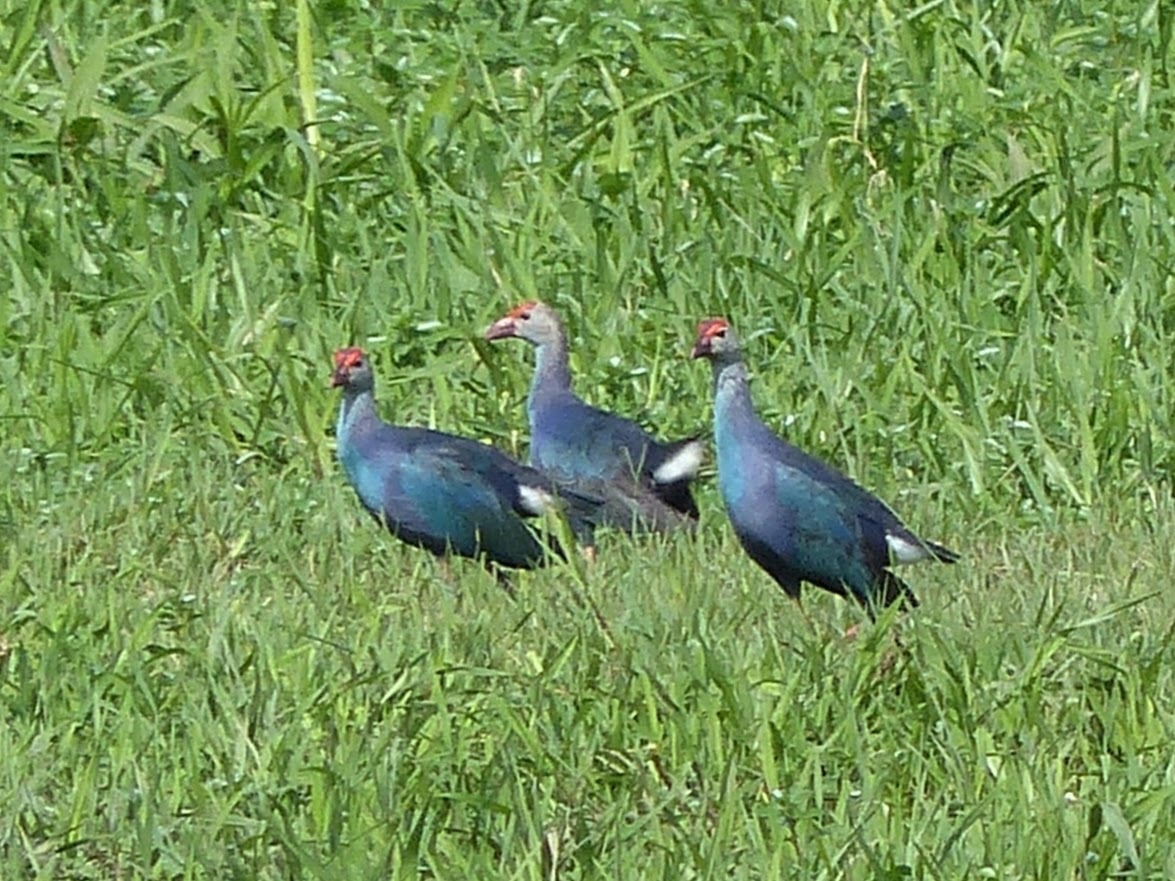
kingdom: Animalia
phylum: Chordata
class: Aves
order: Gruiformes
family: Rallidae
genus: Porphyrio
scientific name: Porphyrio porphyrio
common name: Purple swamphen
